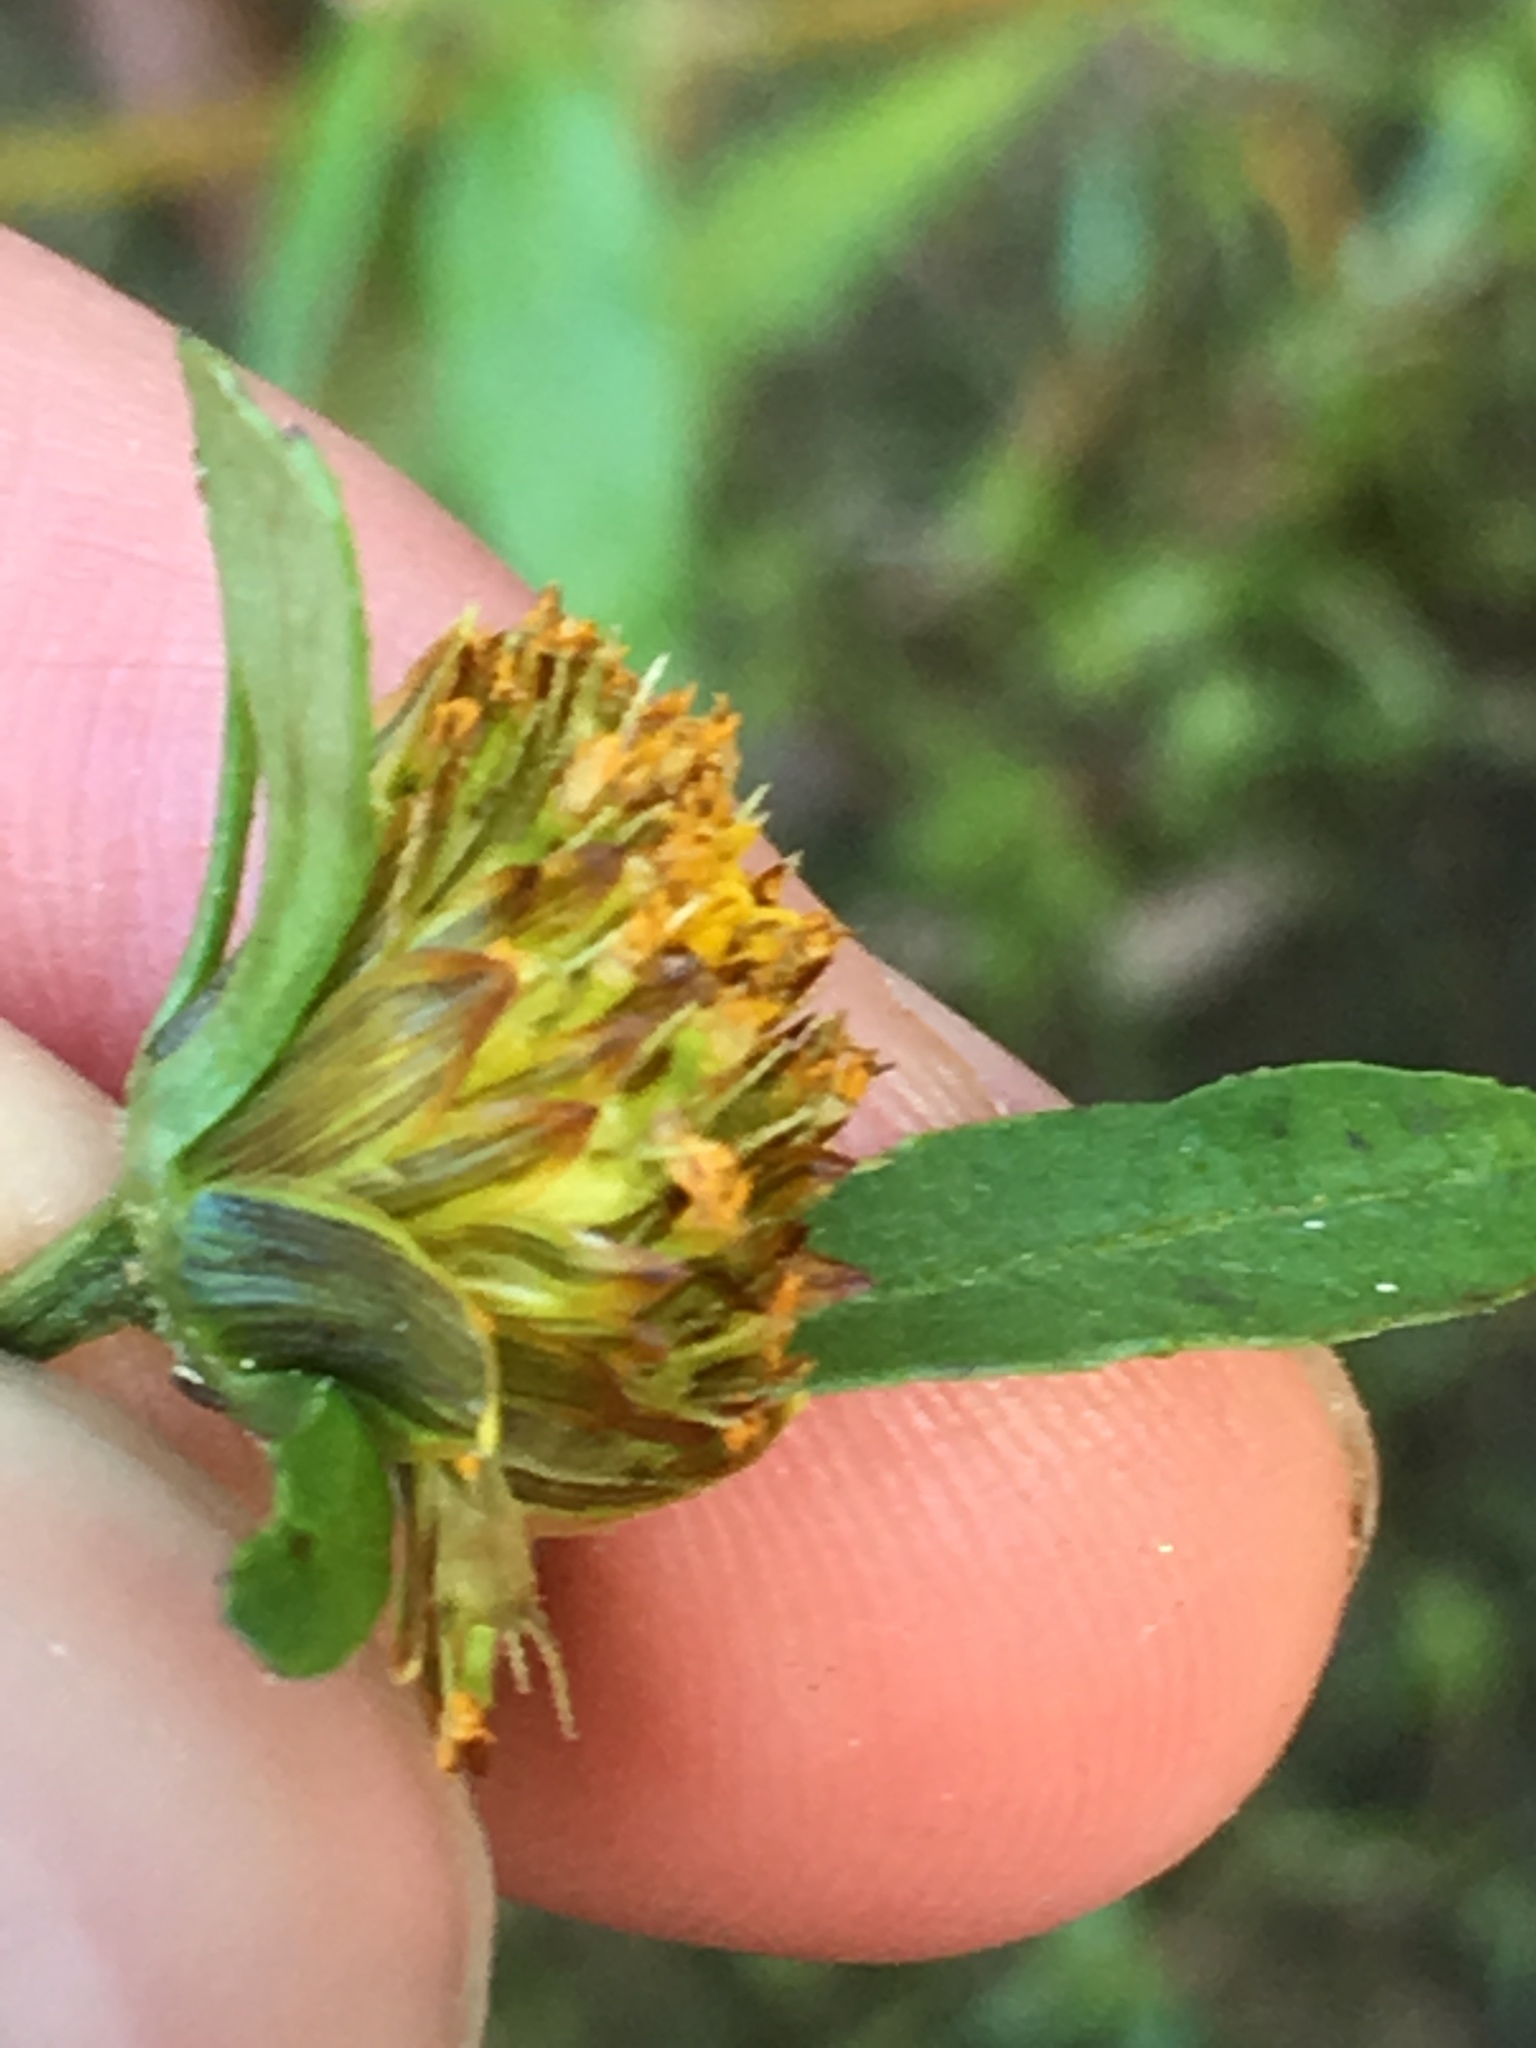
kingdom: Plantae
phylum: Tracheophyta
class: Magnoliopsida
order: Asterales
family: Asteraceae
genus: Bidens
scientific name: Bidens frondosa
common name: Beggarticks
